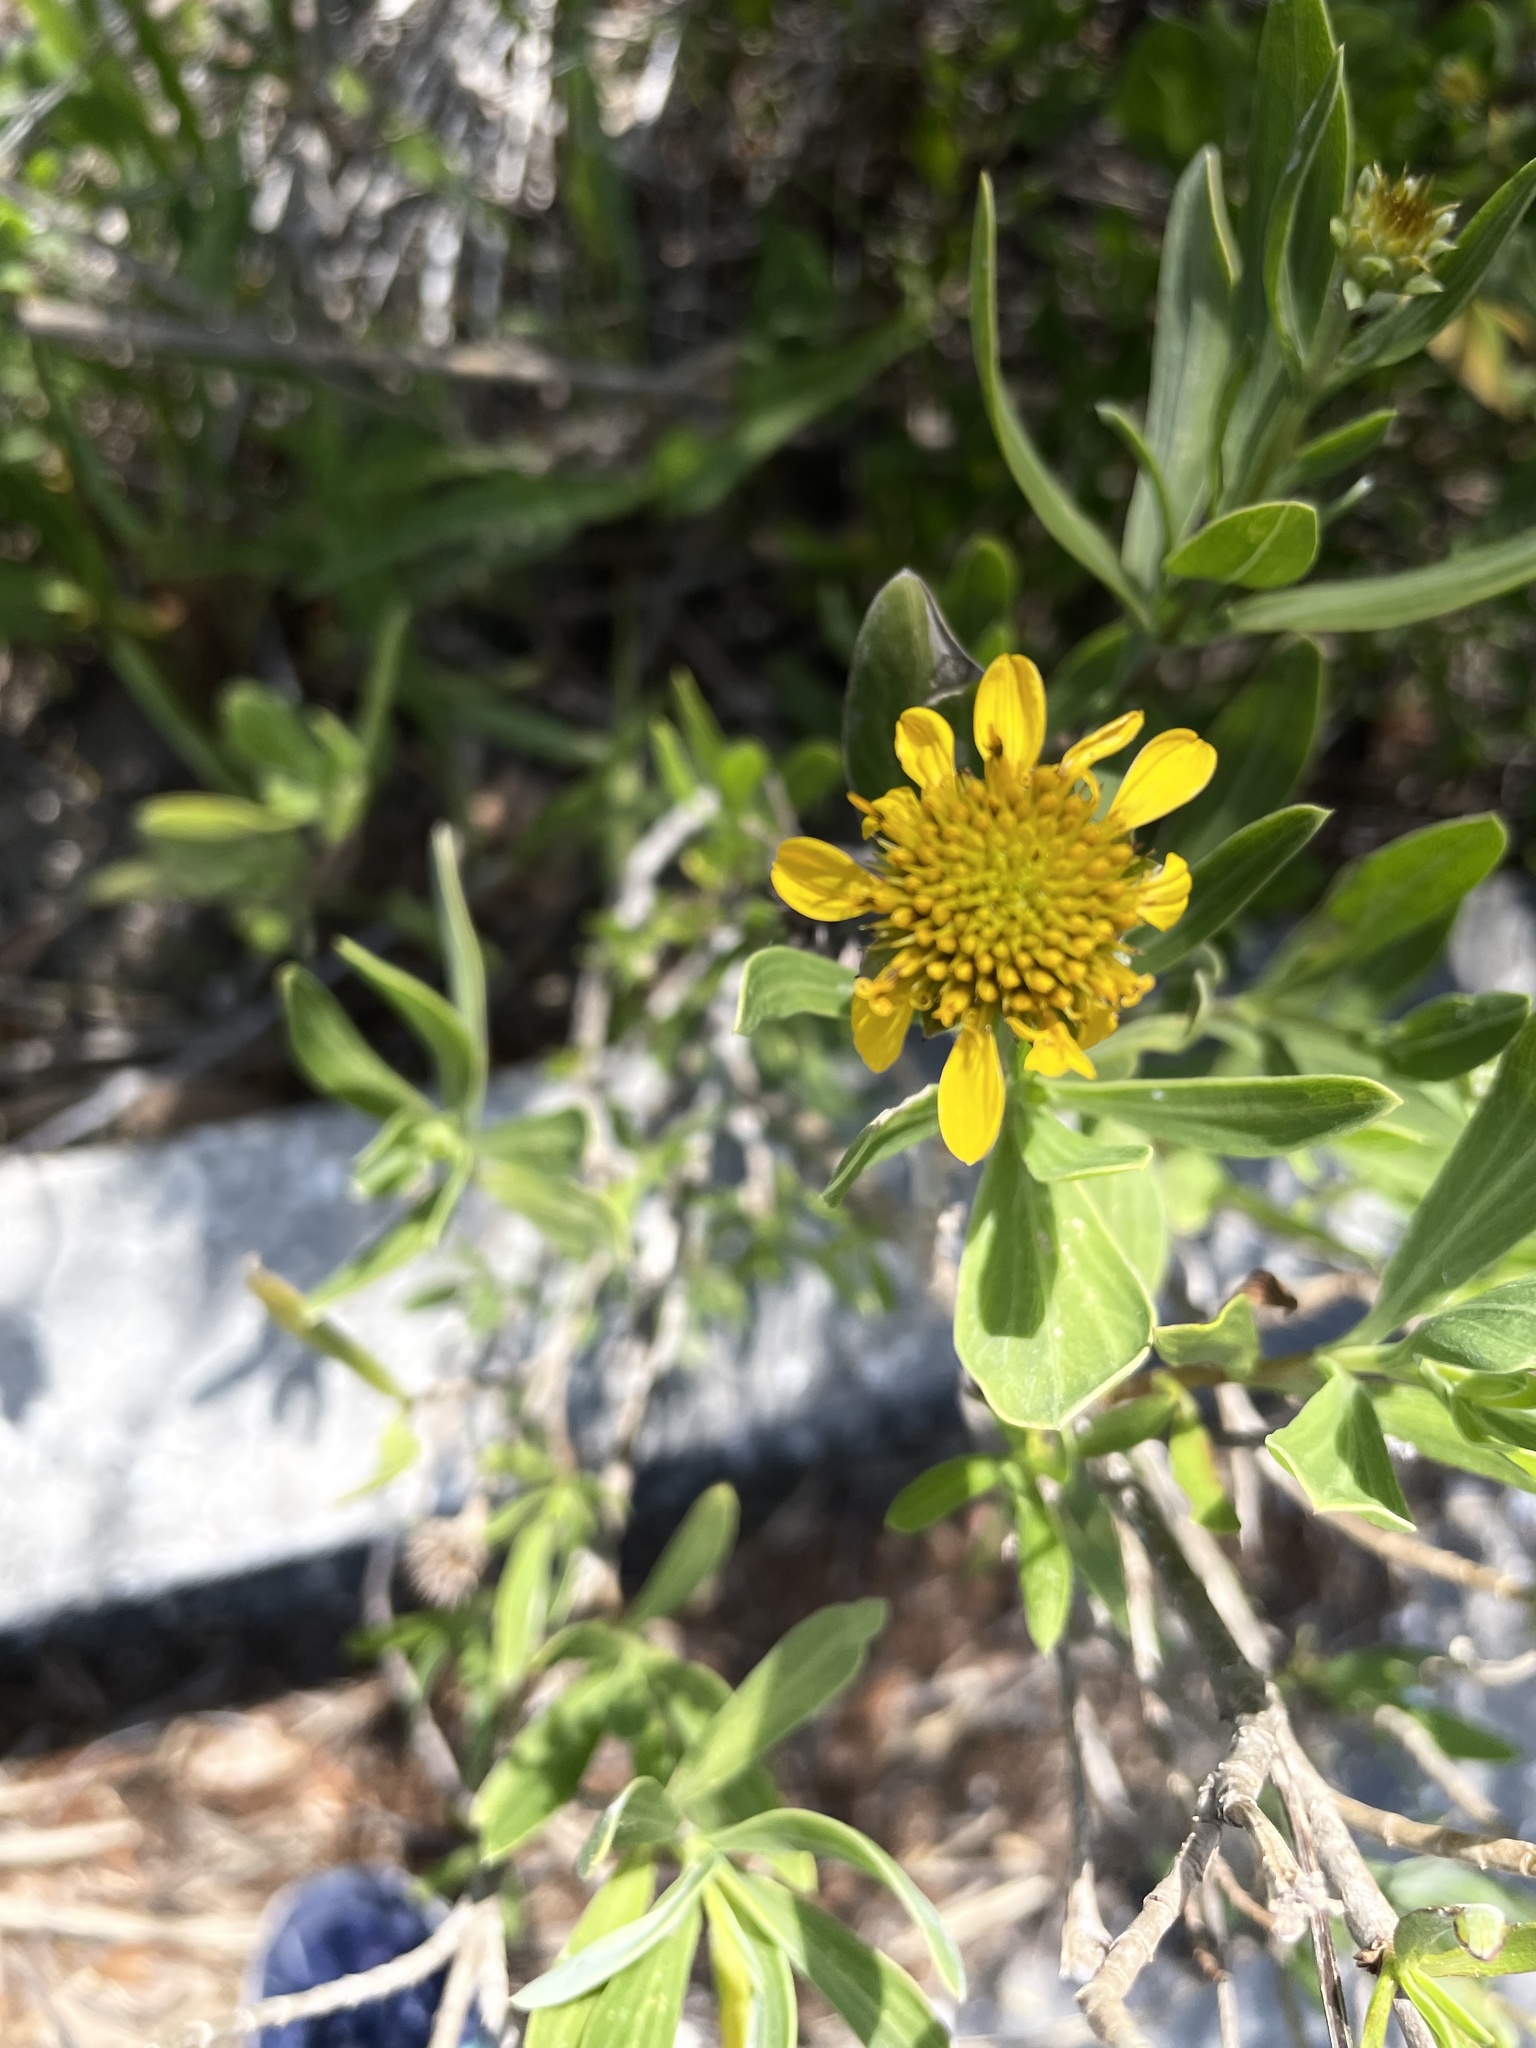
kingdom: Plantae
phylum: Tracheophyta
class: Magnoliopsida
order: Asterales
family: Asteraceae
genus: Borrichia
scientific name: Borrichia frutescens
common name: Sea oxeye
